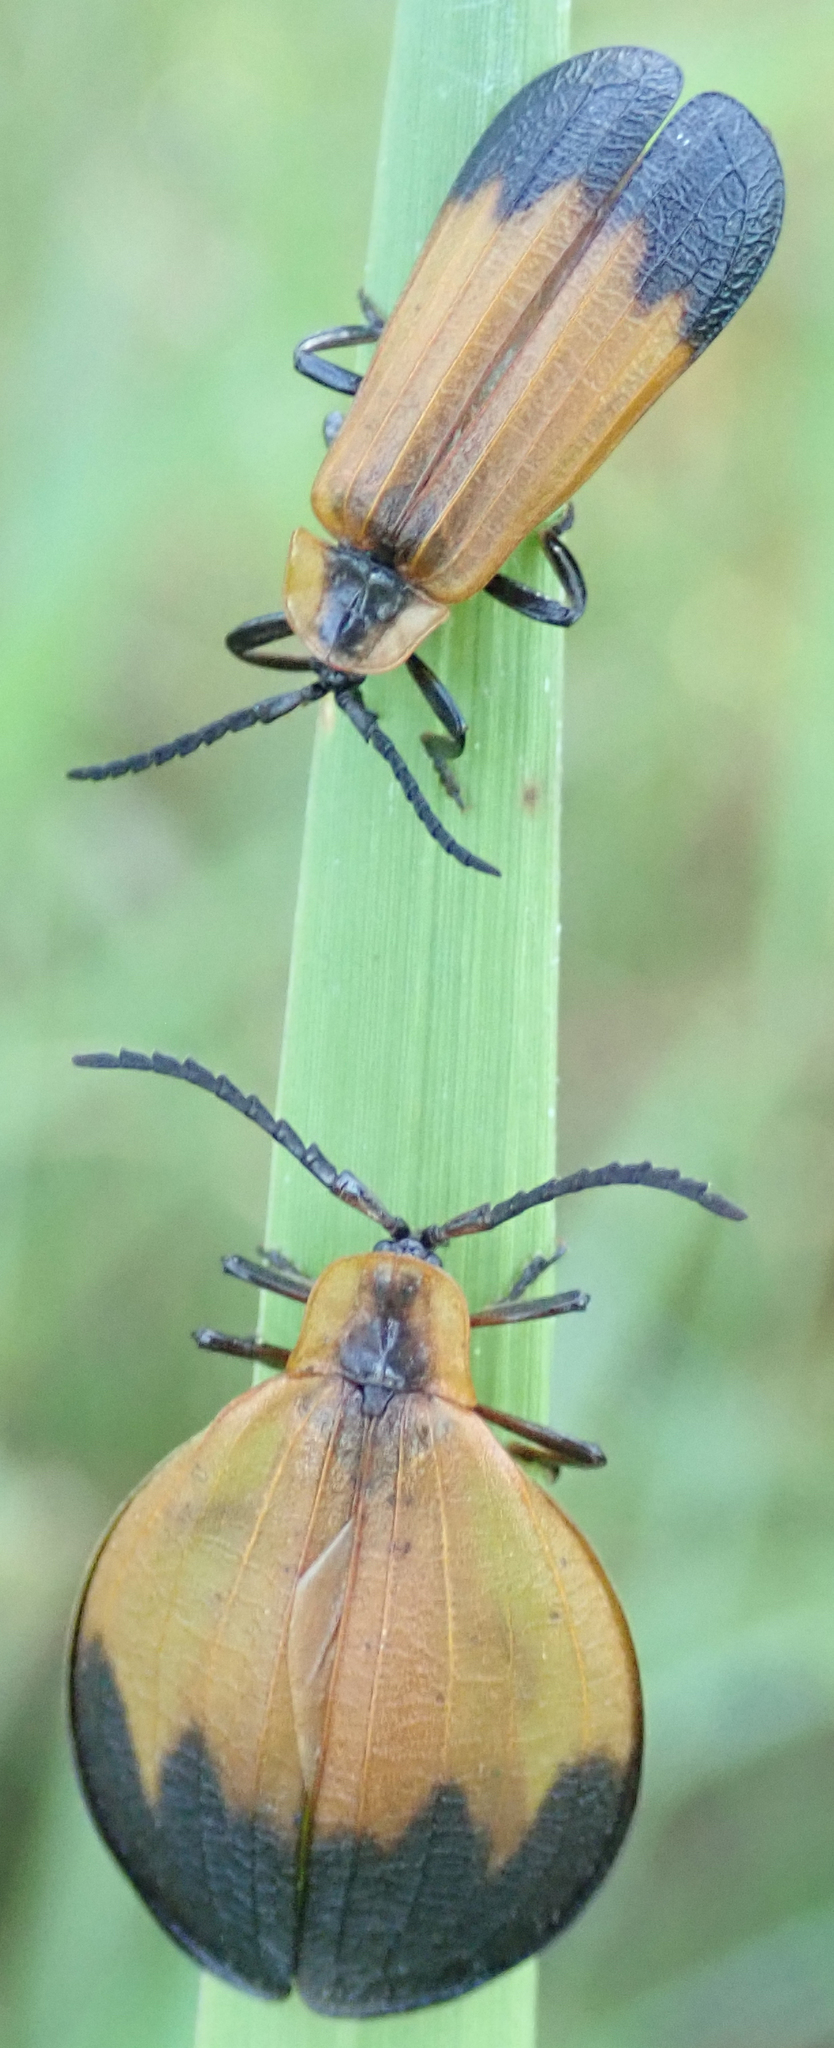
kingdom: Animalia
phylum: Arthropoda
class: Insecta
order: Coleoptera
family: Lycidae
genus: Lycus
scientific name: Lycus
